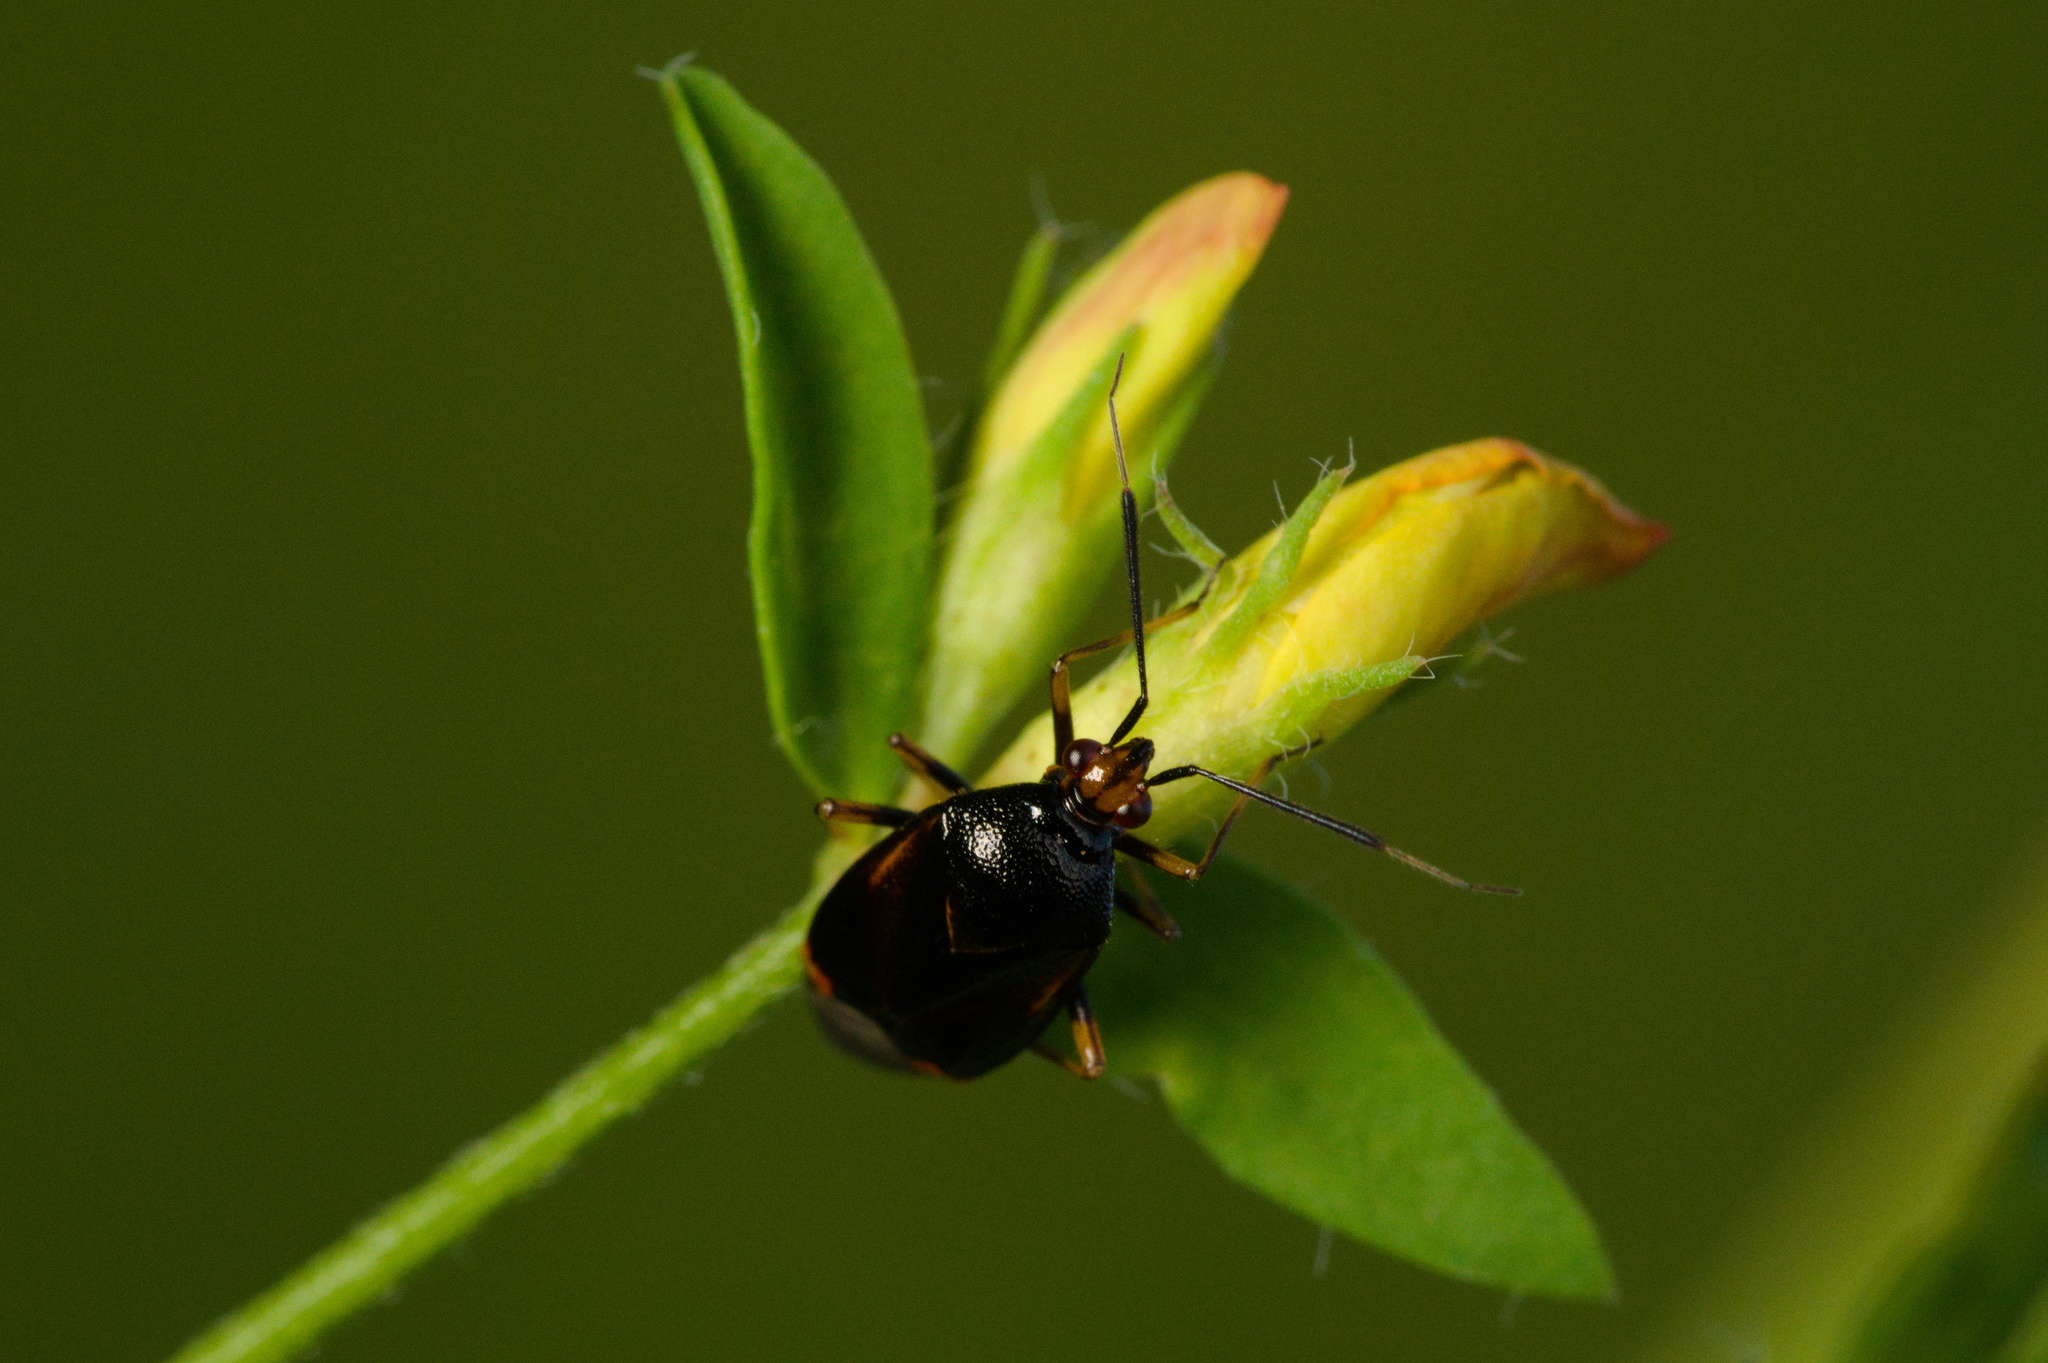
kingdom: Animalia
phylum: Arthropoda
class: Insecta
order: Hemiptera
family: Miridae
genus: Deraeocoris
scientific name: Deraeocoris ruber
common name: Plant bug
